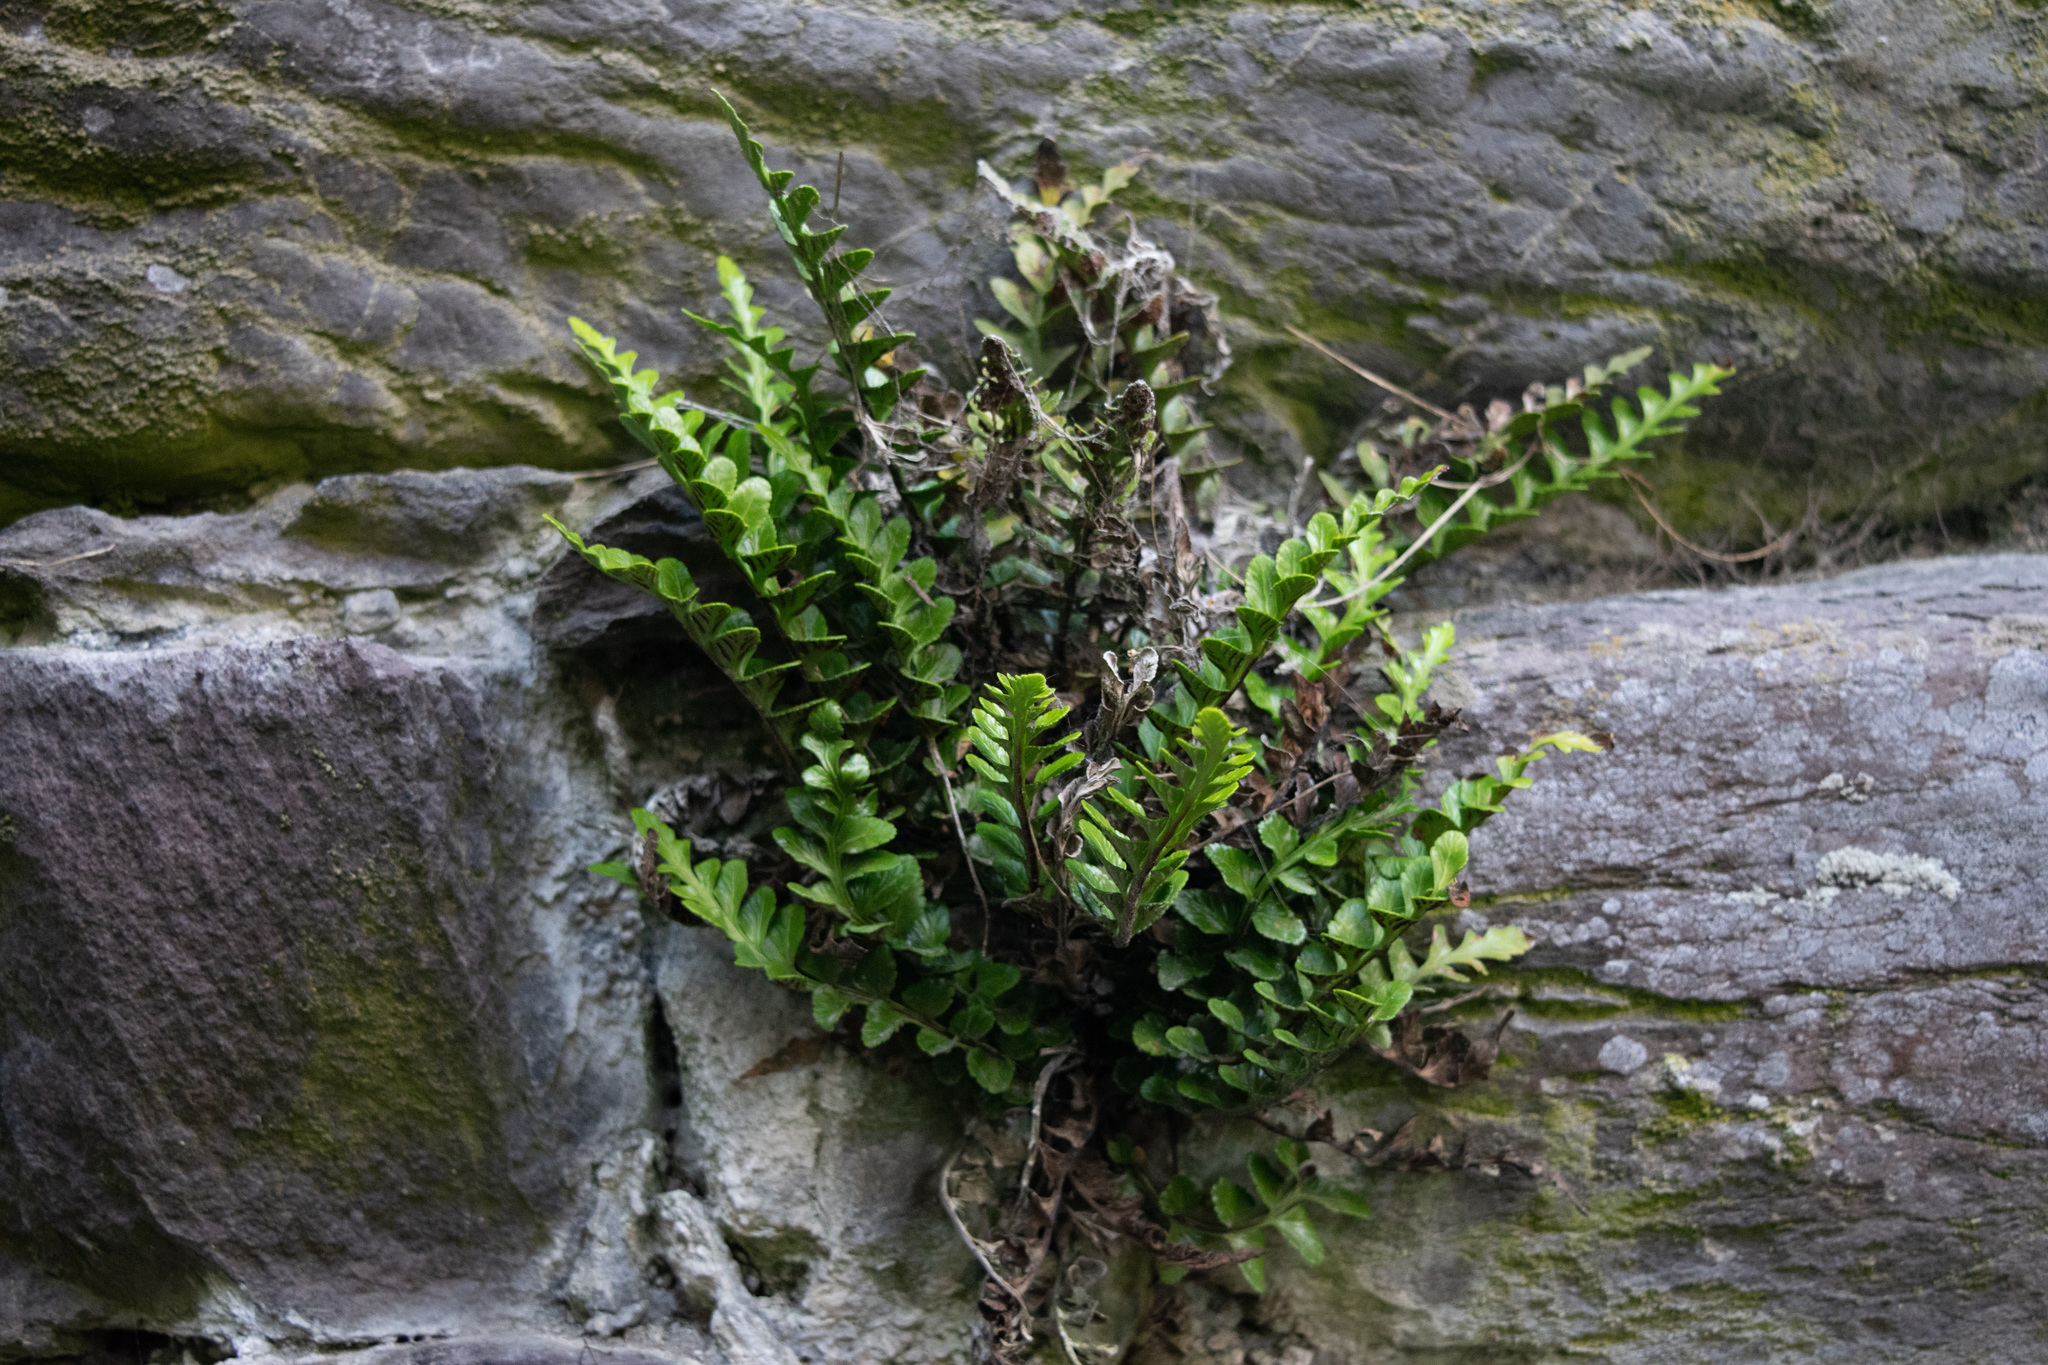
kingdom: Plantae
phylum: Tracheophyta
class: Polypodiopsida
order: Polypodiales
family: Aspleniaceae
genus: Asplenium
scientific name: Asplenium ceterach
